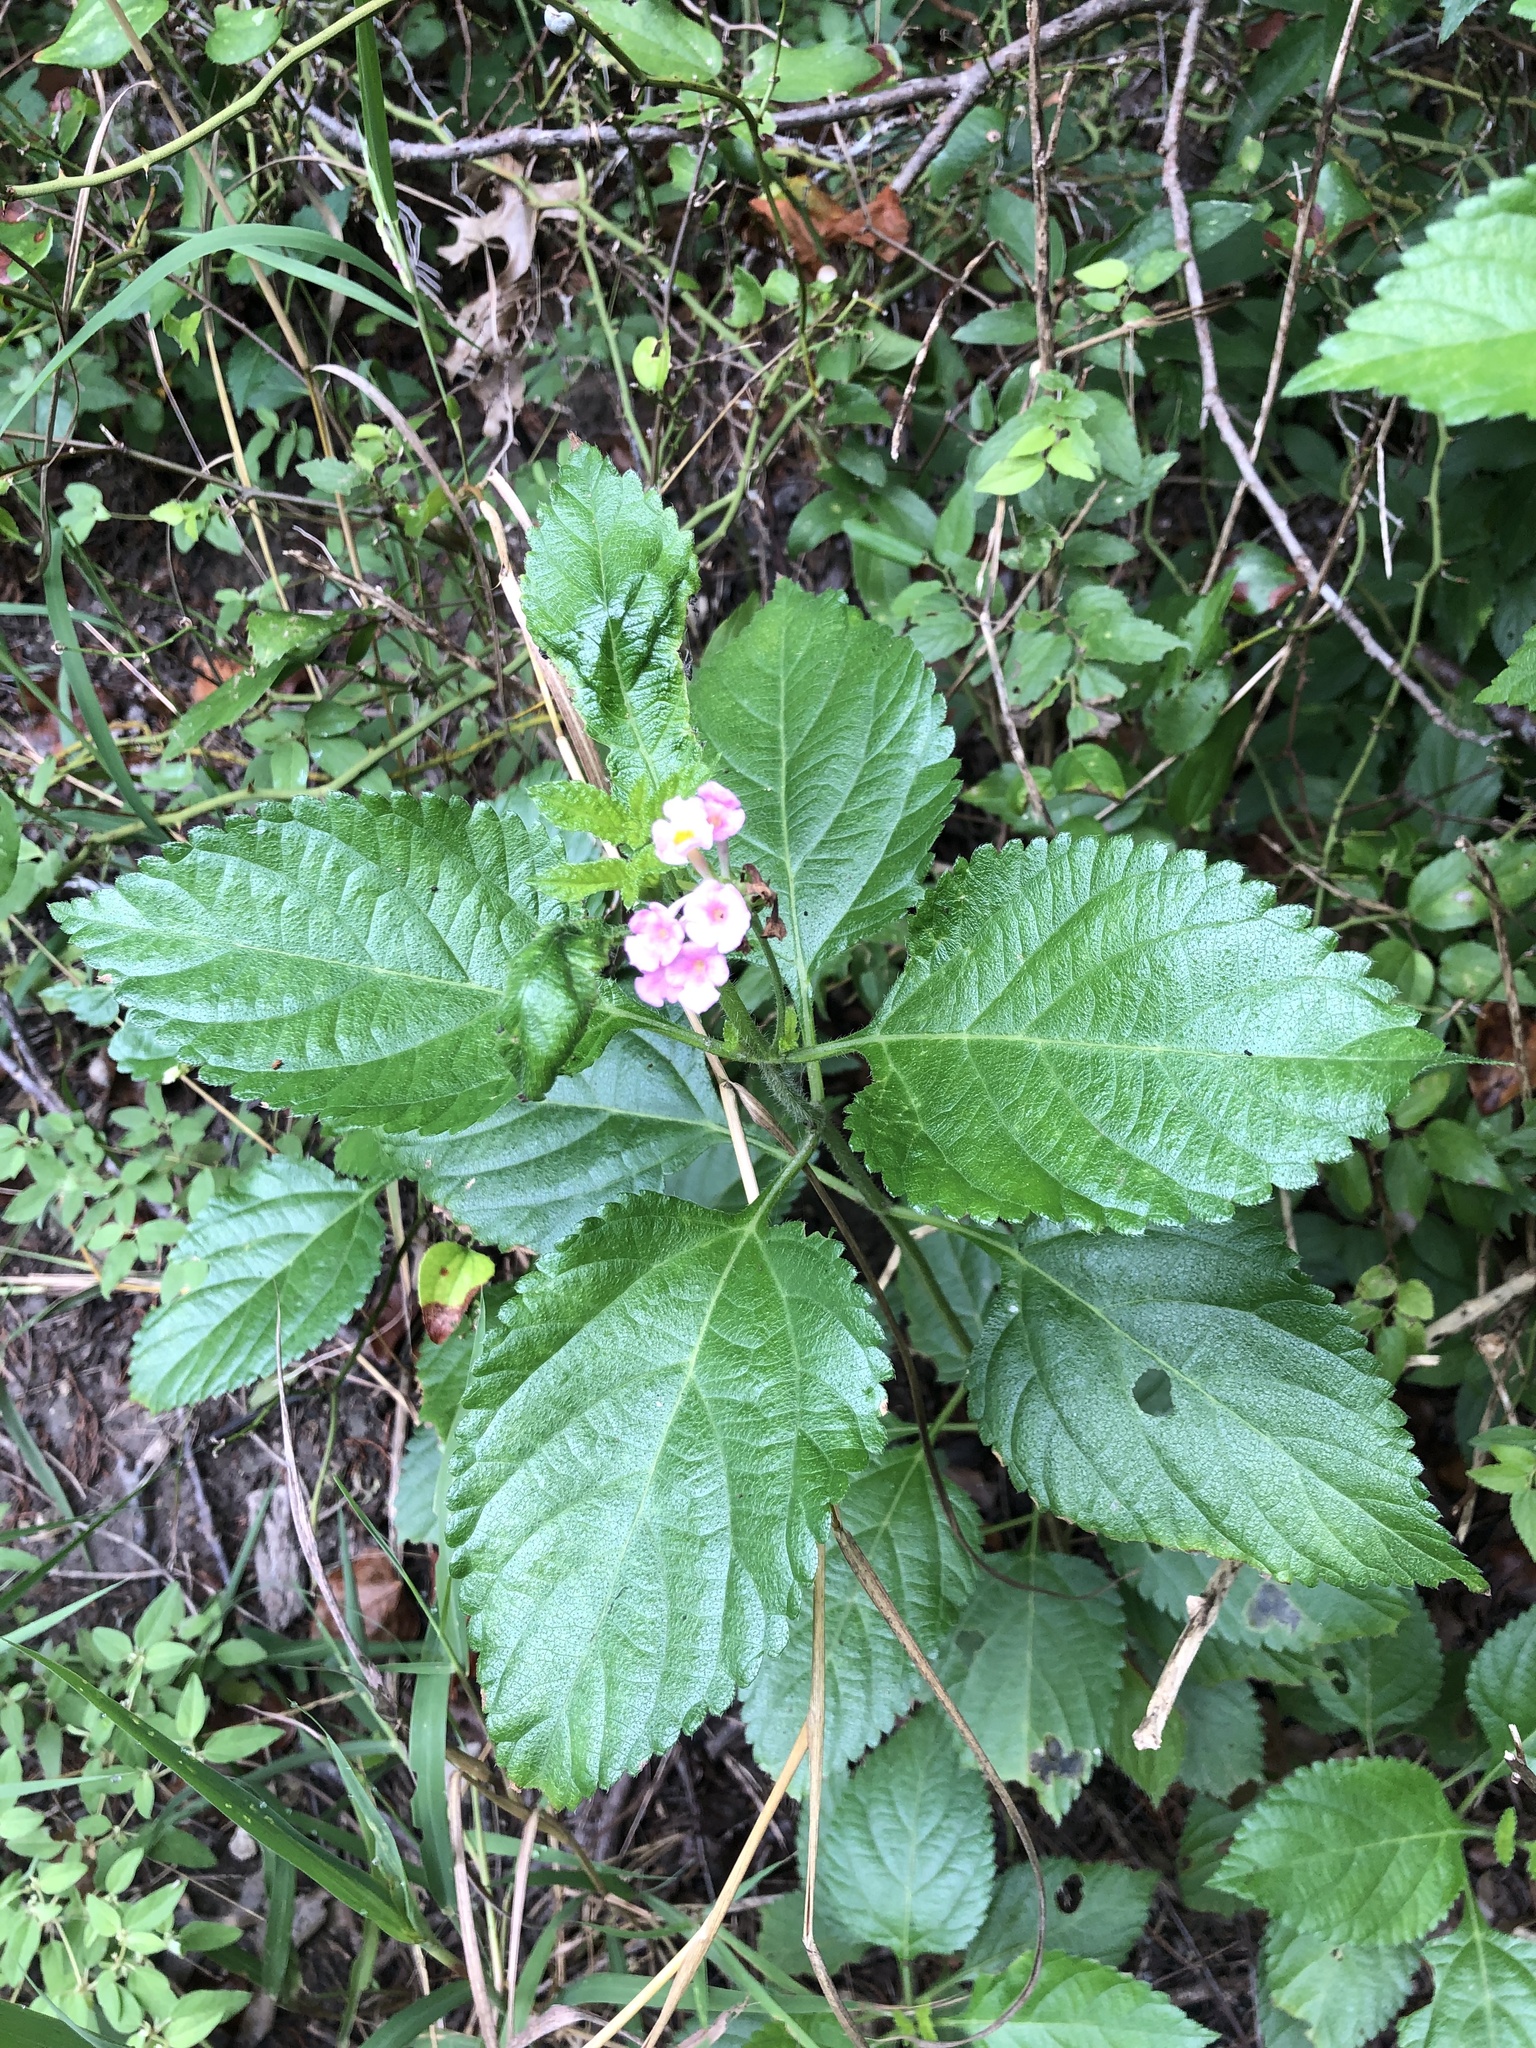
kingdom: Plantae
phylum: Tracheophyta
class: Magnoliopsida
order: Lamiales
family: Verbenaceae
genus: Lantana
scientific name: Lantana strigocamara
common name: Lantana
